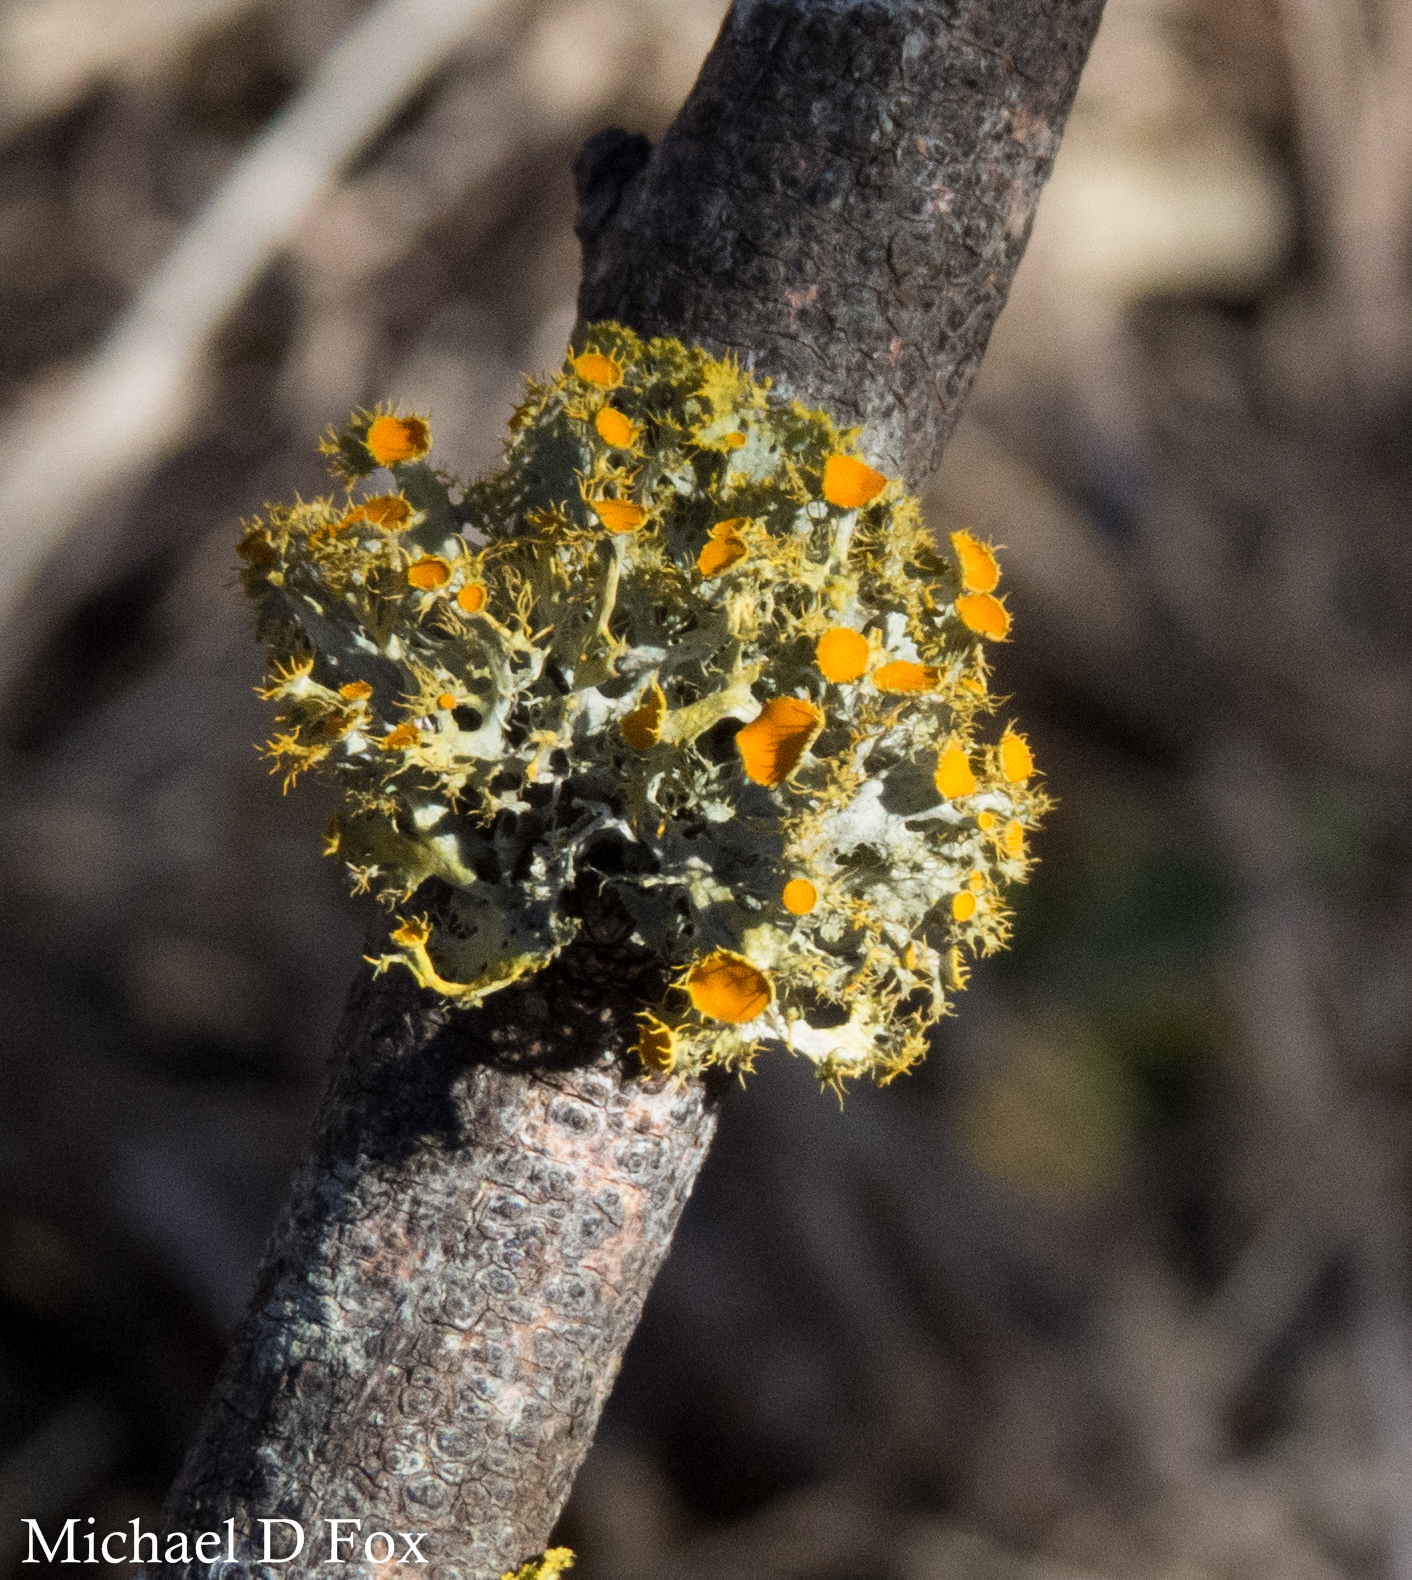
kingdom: Fungi
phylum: Ascomycota
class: Lecanoromycetes
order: Teloschistales
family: Teloschistaceae
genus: Niorma
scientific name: Niorma chrysophthalma
